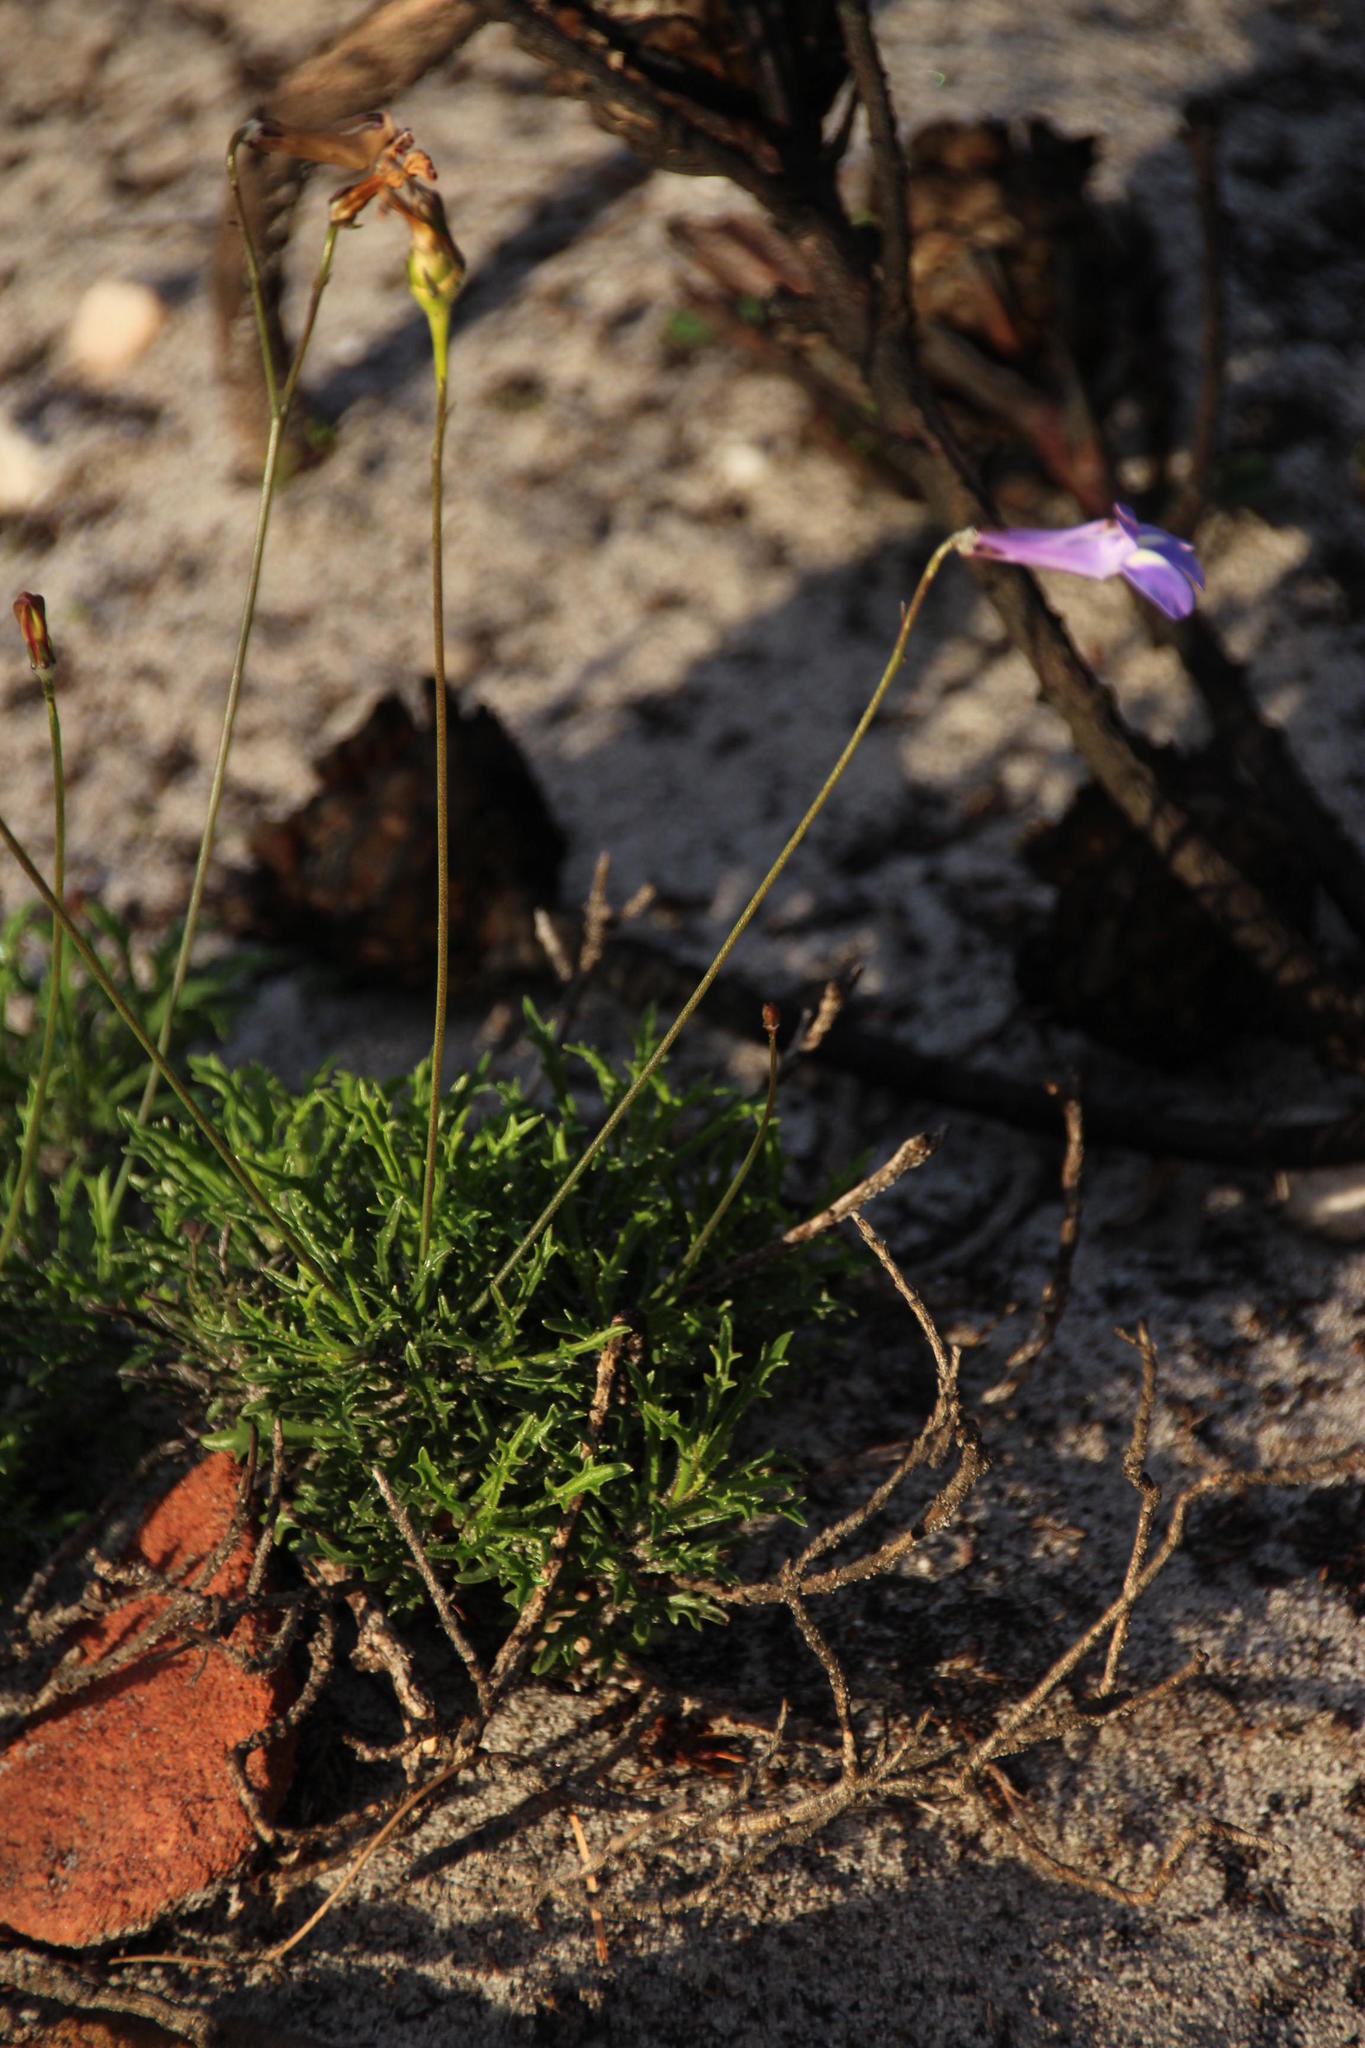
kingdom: Plantae
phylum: Tracheophyta
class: Magnoliopsida
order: Asterales
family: Campanulaceae
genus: Lobelia
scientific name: Lobelia coronopifolia
